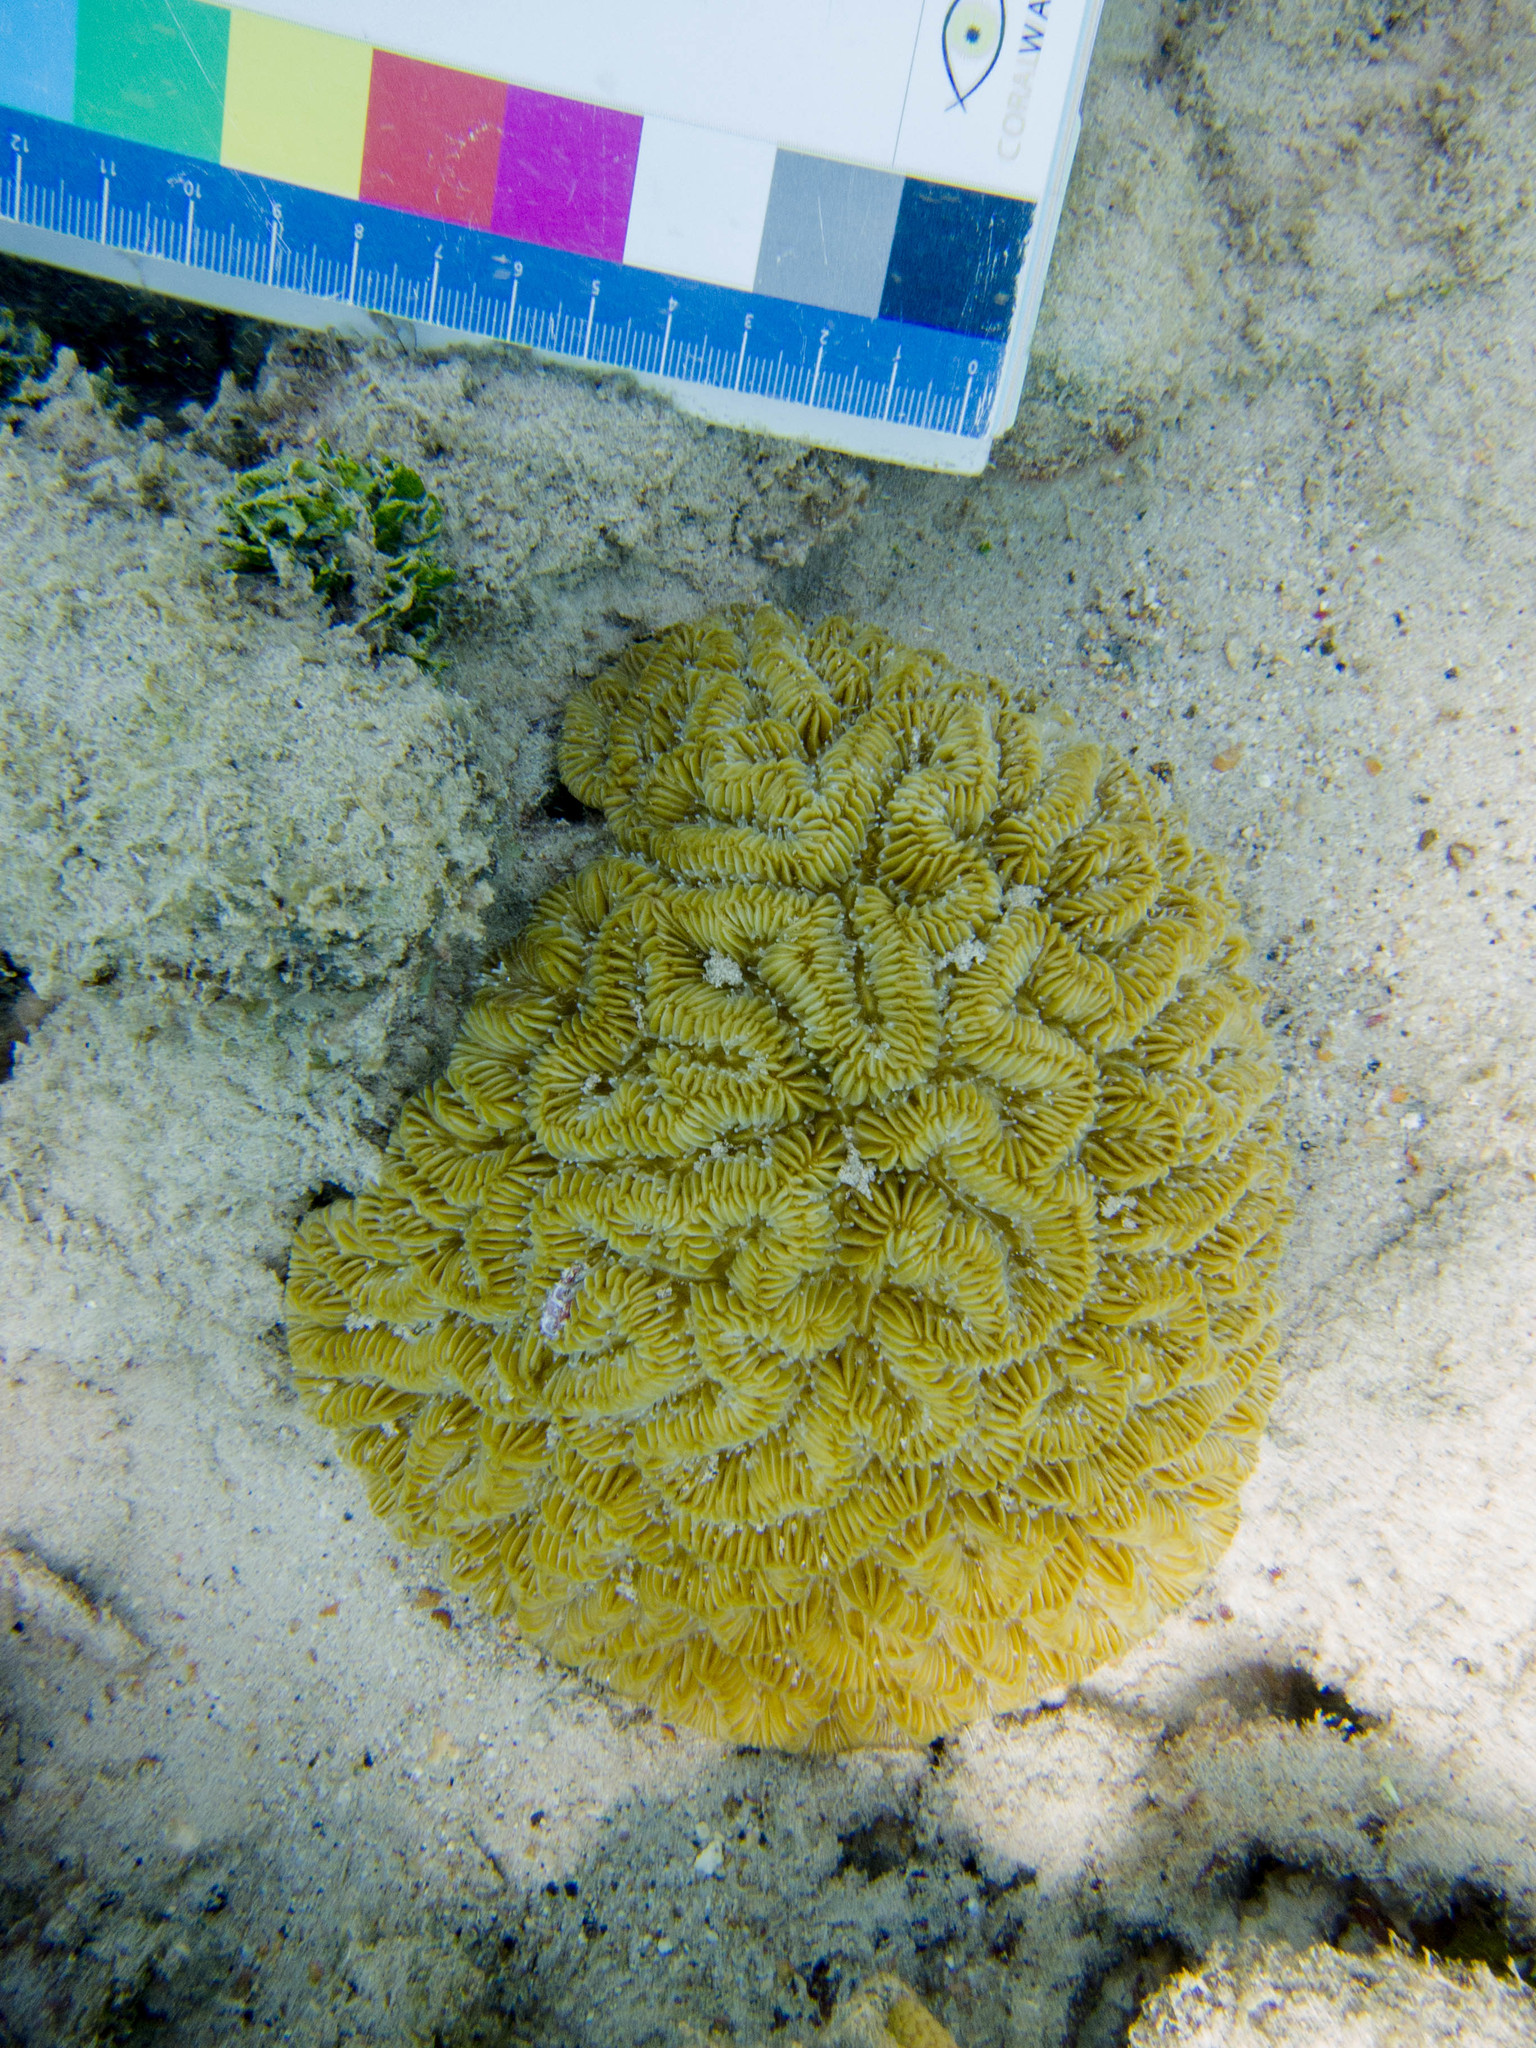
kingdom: Animalia
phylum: Cnidaria
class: Anthozoa
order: Scleractinia
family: Meandrinidae
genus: Meandrina
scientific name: Meandrina meandrites
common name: Maze coral
